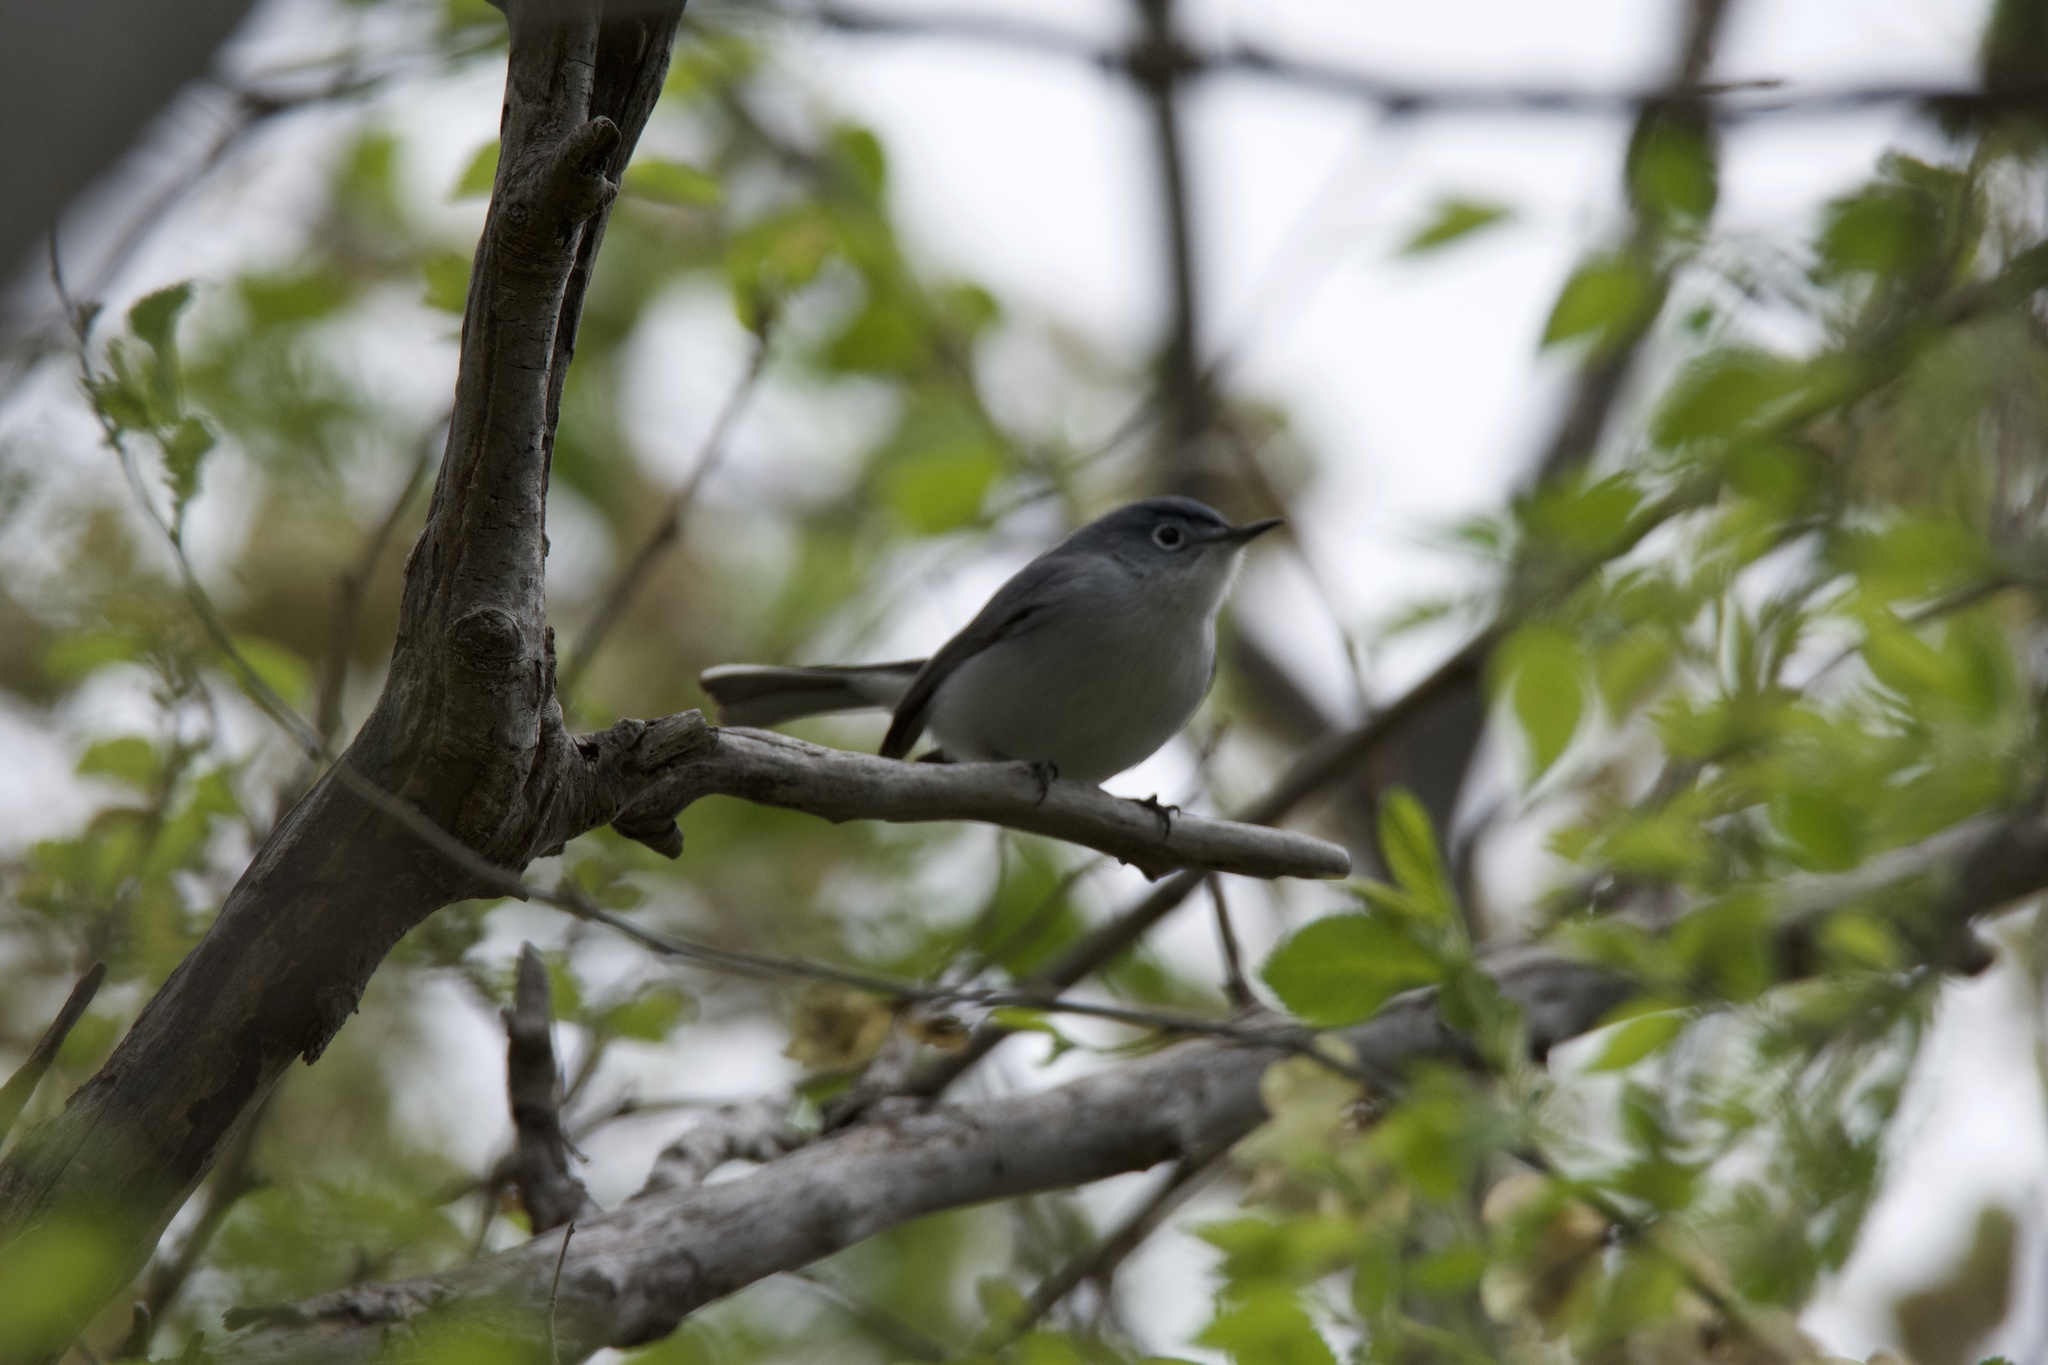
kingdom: Animalia
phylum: Chordata
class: Aves
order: Passeriformes
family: Polioptilidae
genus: Polioptila
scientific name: Polioptila caerulea
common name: Blue-gray gnatcatcher
